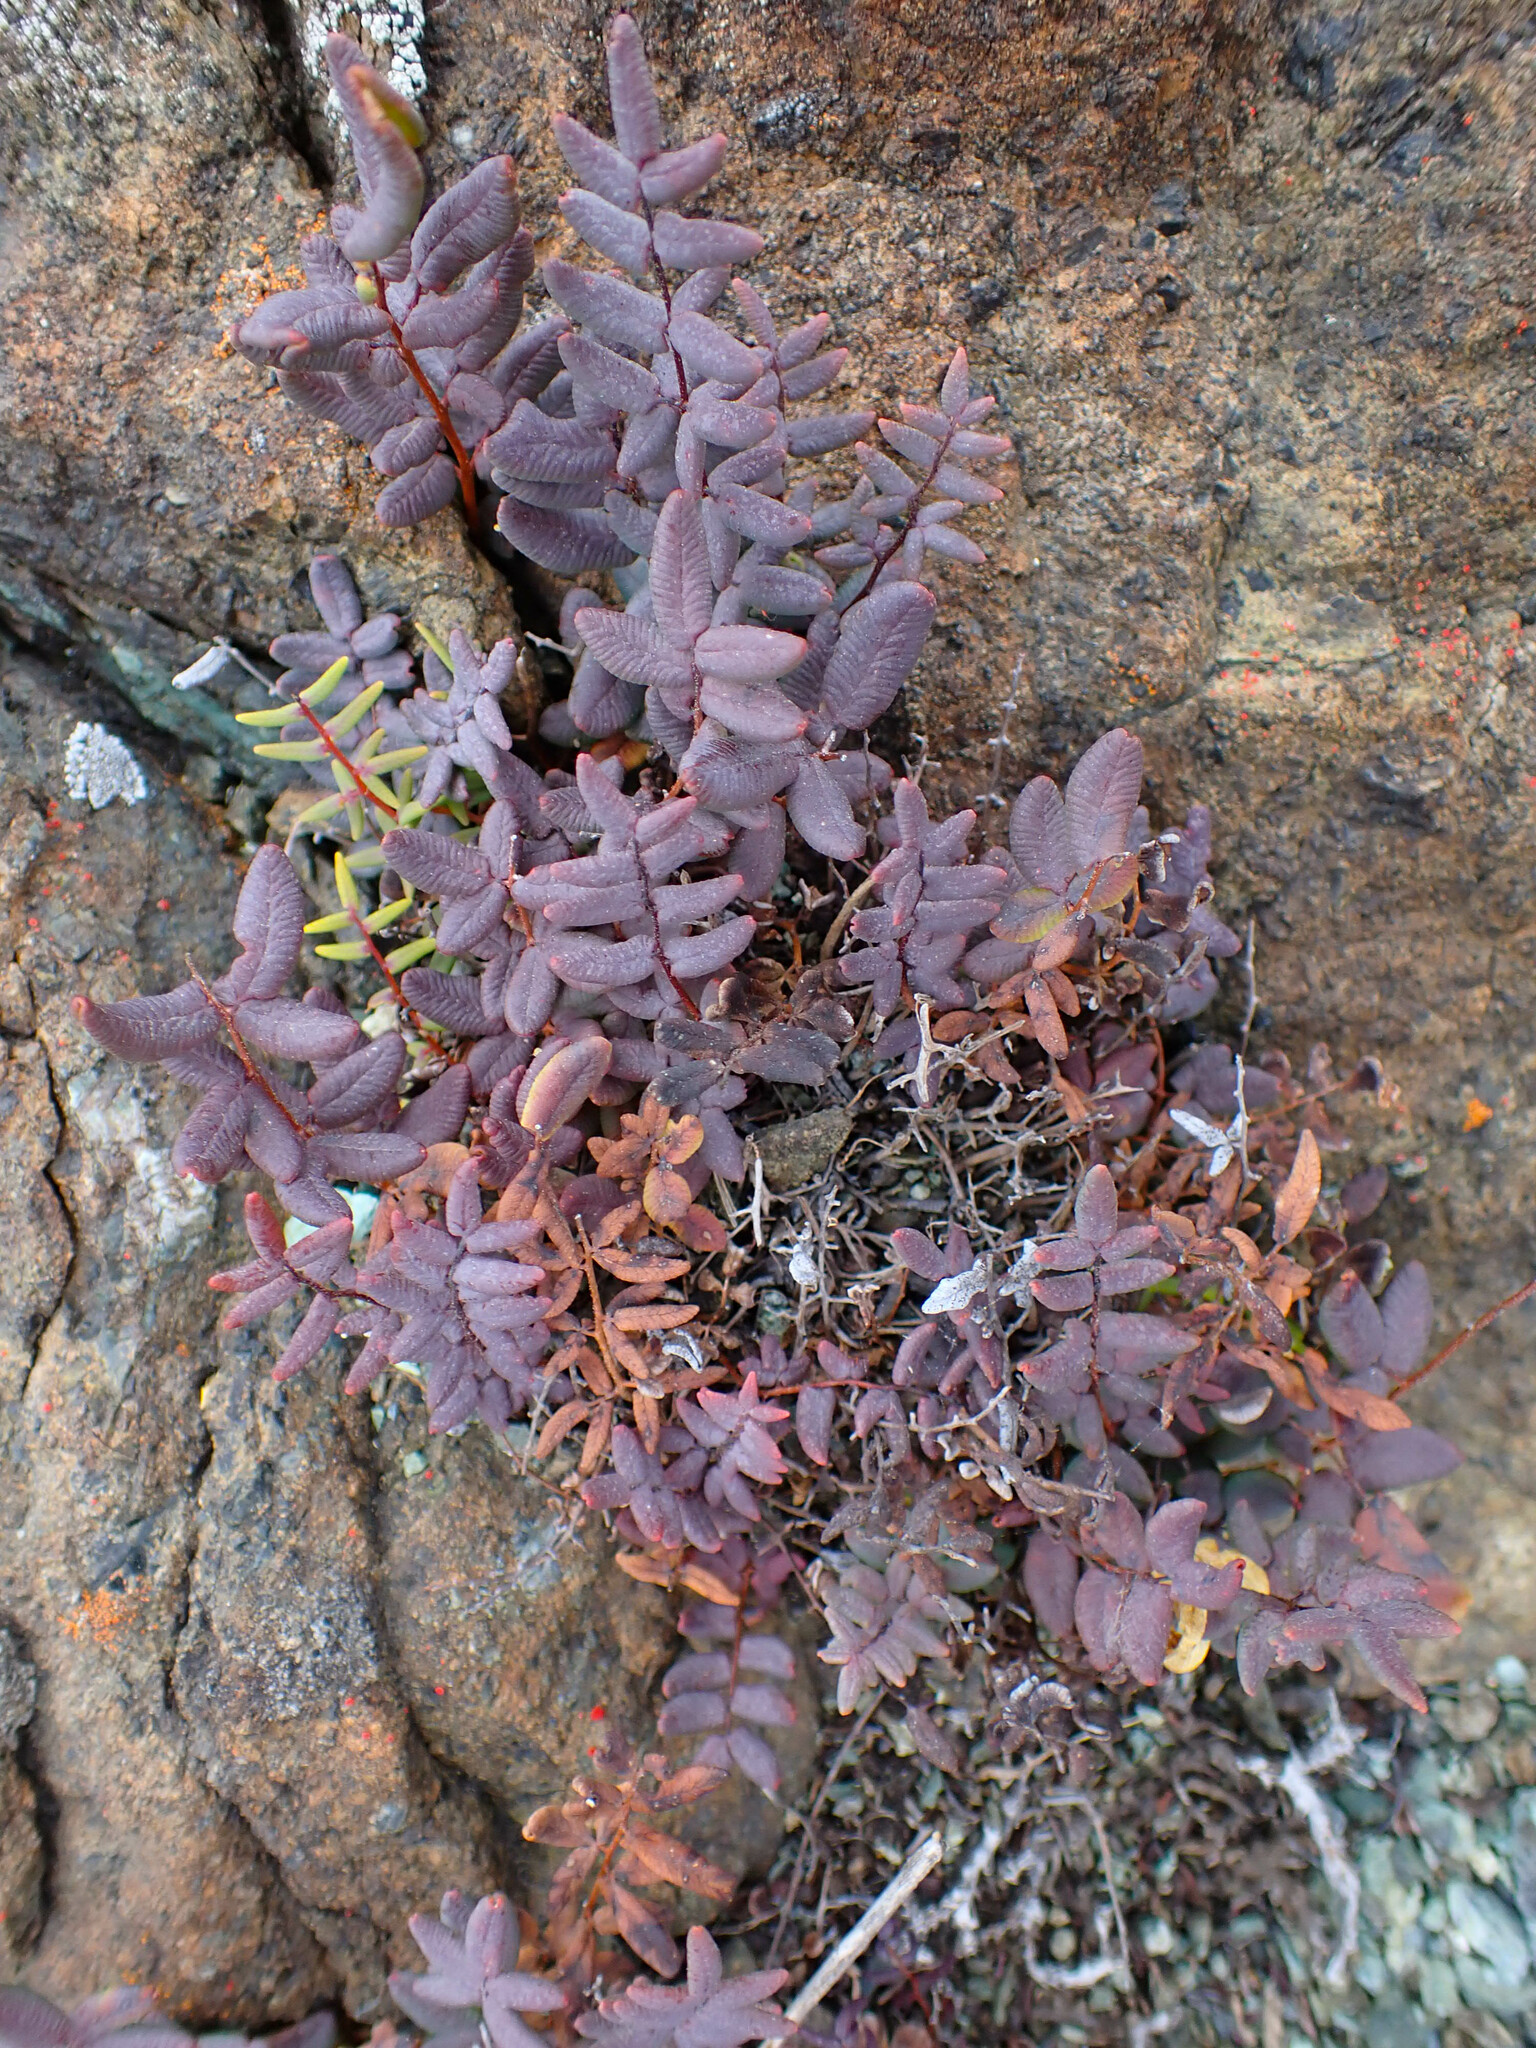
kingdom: Plantae
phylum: Tracheophyta
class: Polypodiopsida
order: Polypodiales
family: Pteridaceae
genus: Pellaea
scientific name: Pellaea andromedifolia
